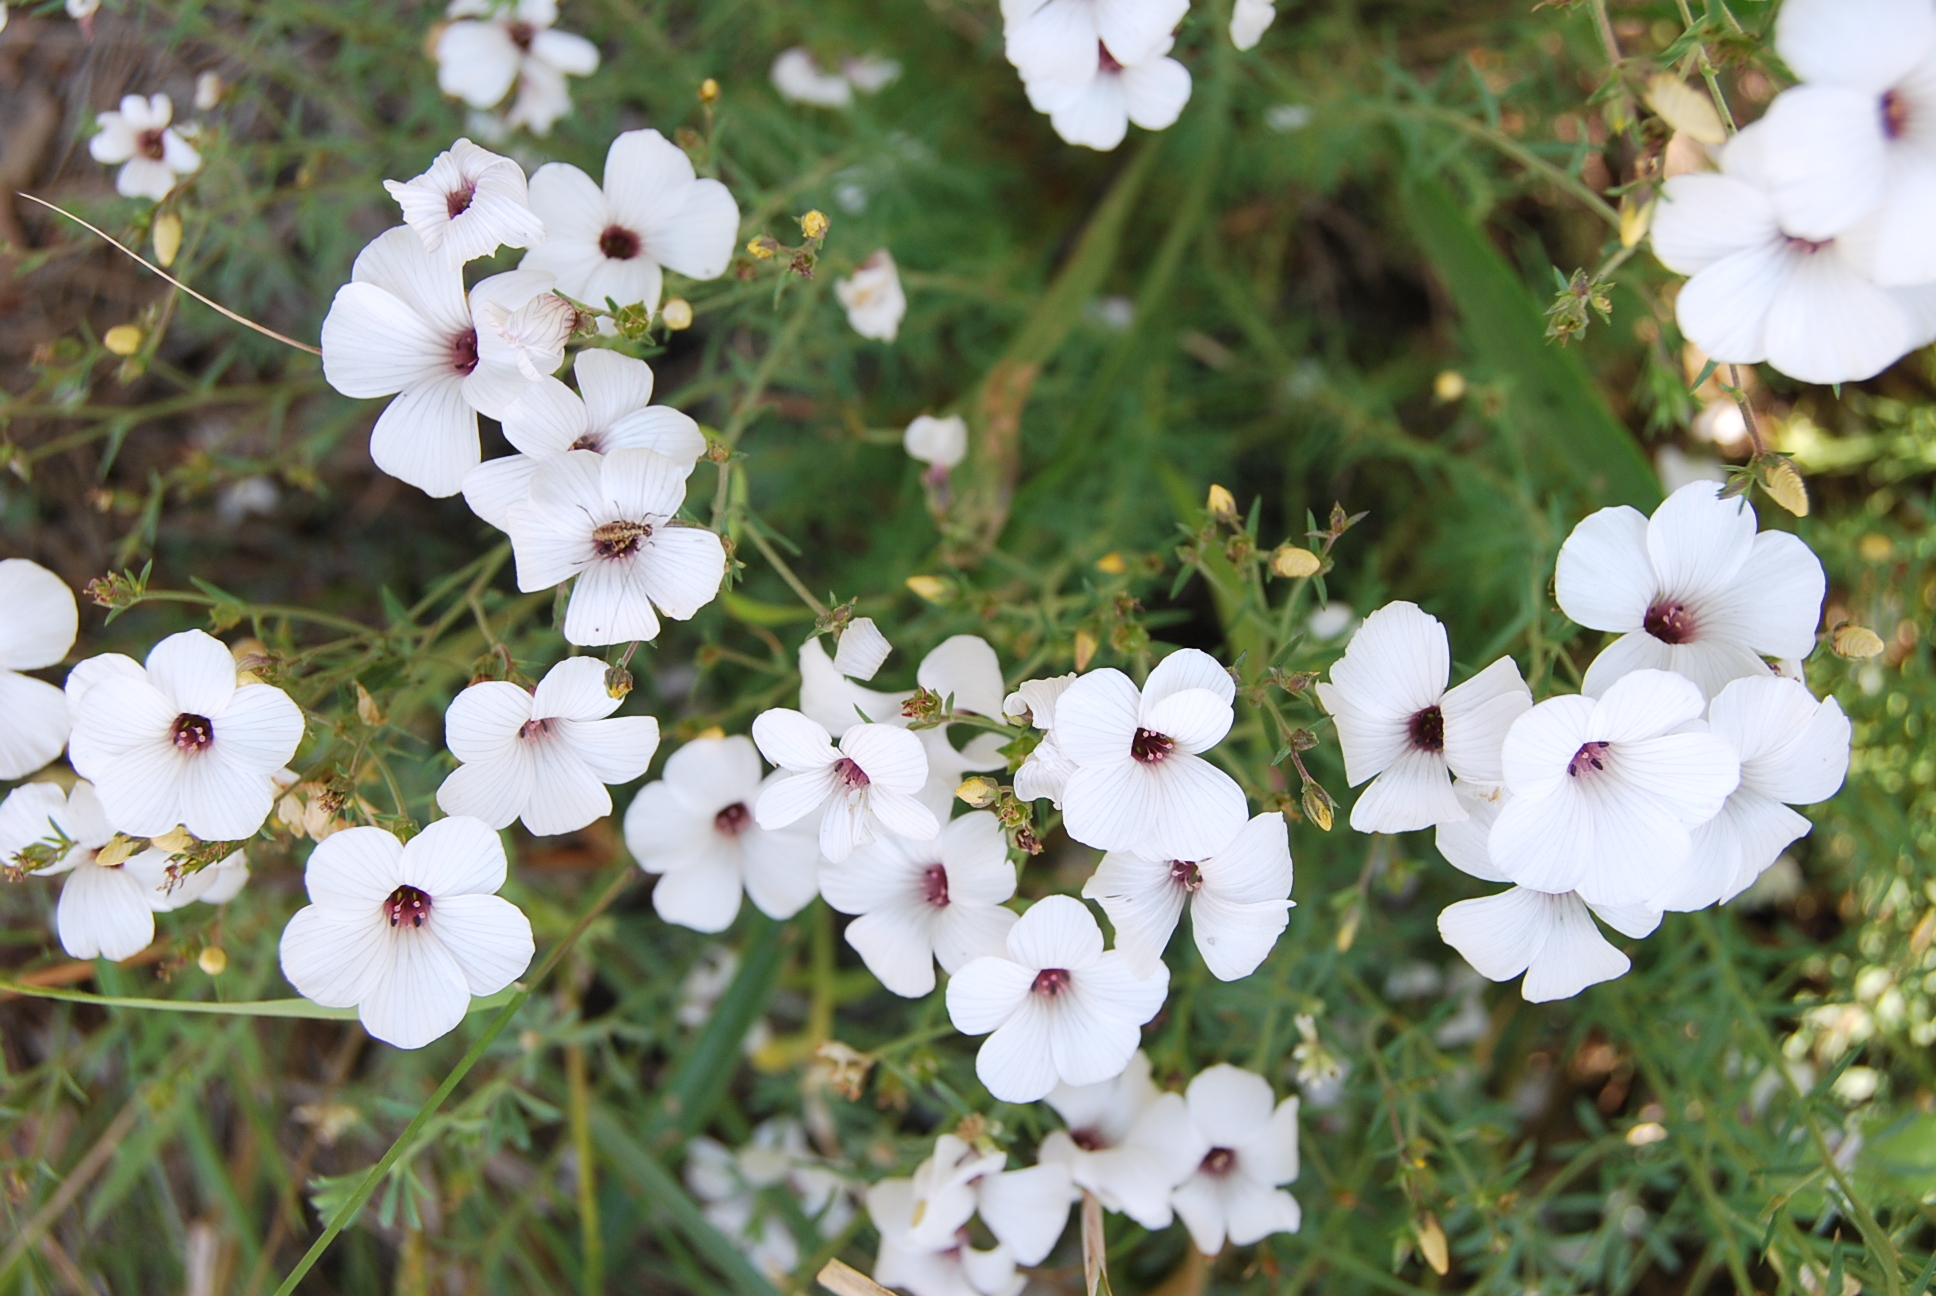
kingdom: Plantae
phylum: Tracheophyta
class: Magnoliopsida
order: Malpighiales
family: Linaceae
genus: Linum
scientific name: Linum suffruticosum
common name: White flax
